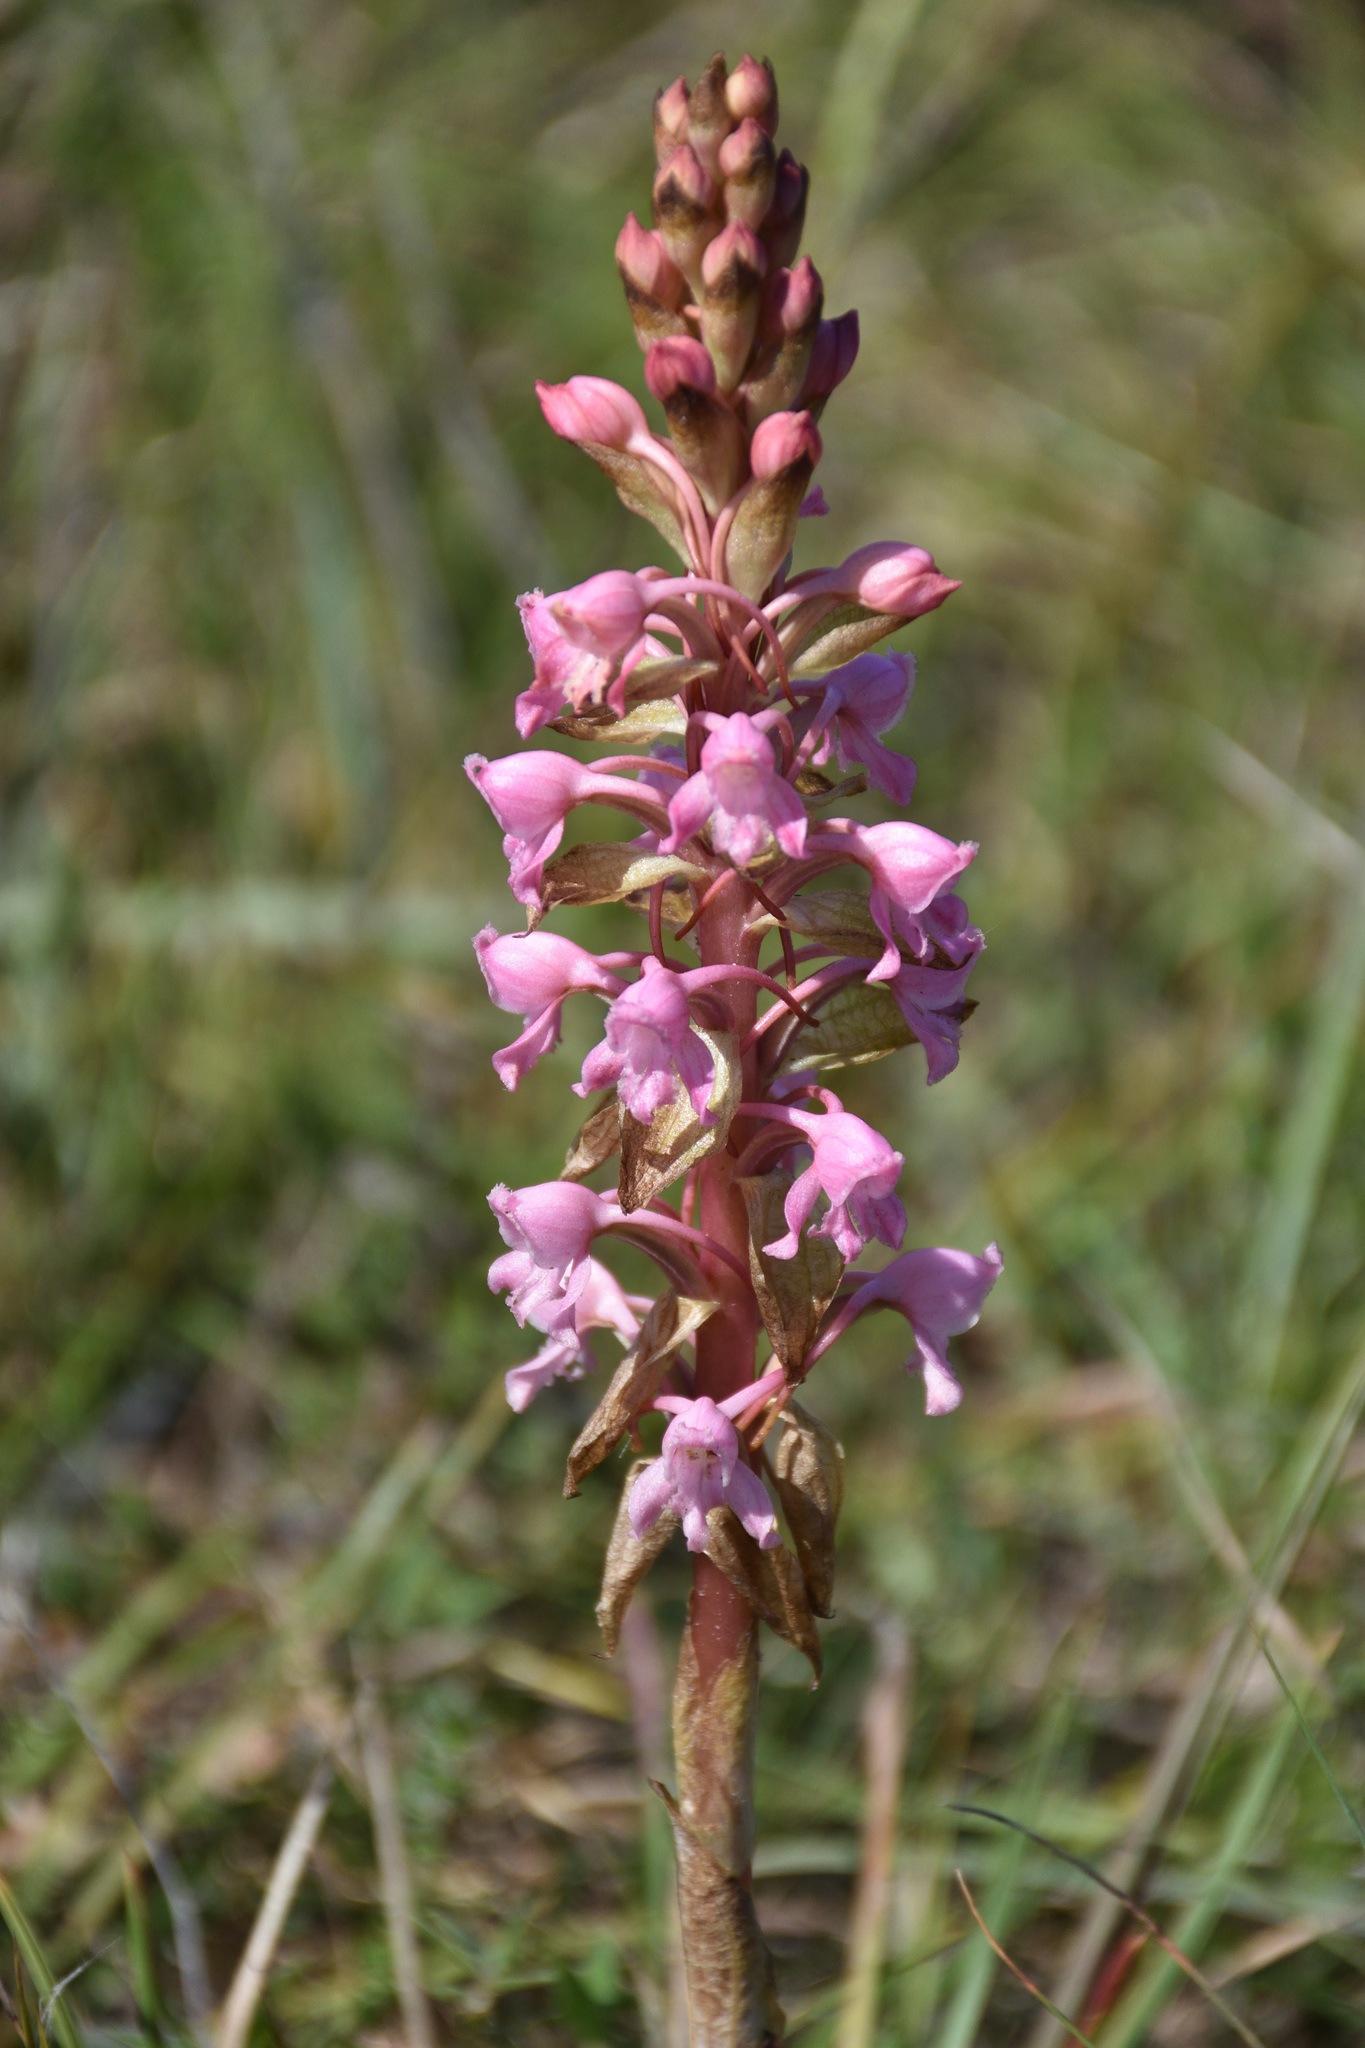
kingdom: Plantae
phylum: Tracheophyta
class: Liliopsida
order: Asparagales
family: Orchidaceae
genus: Satyrium
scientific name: Satyrium membranaceum
